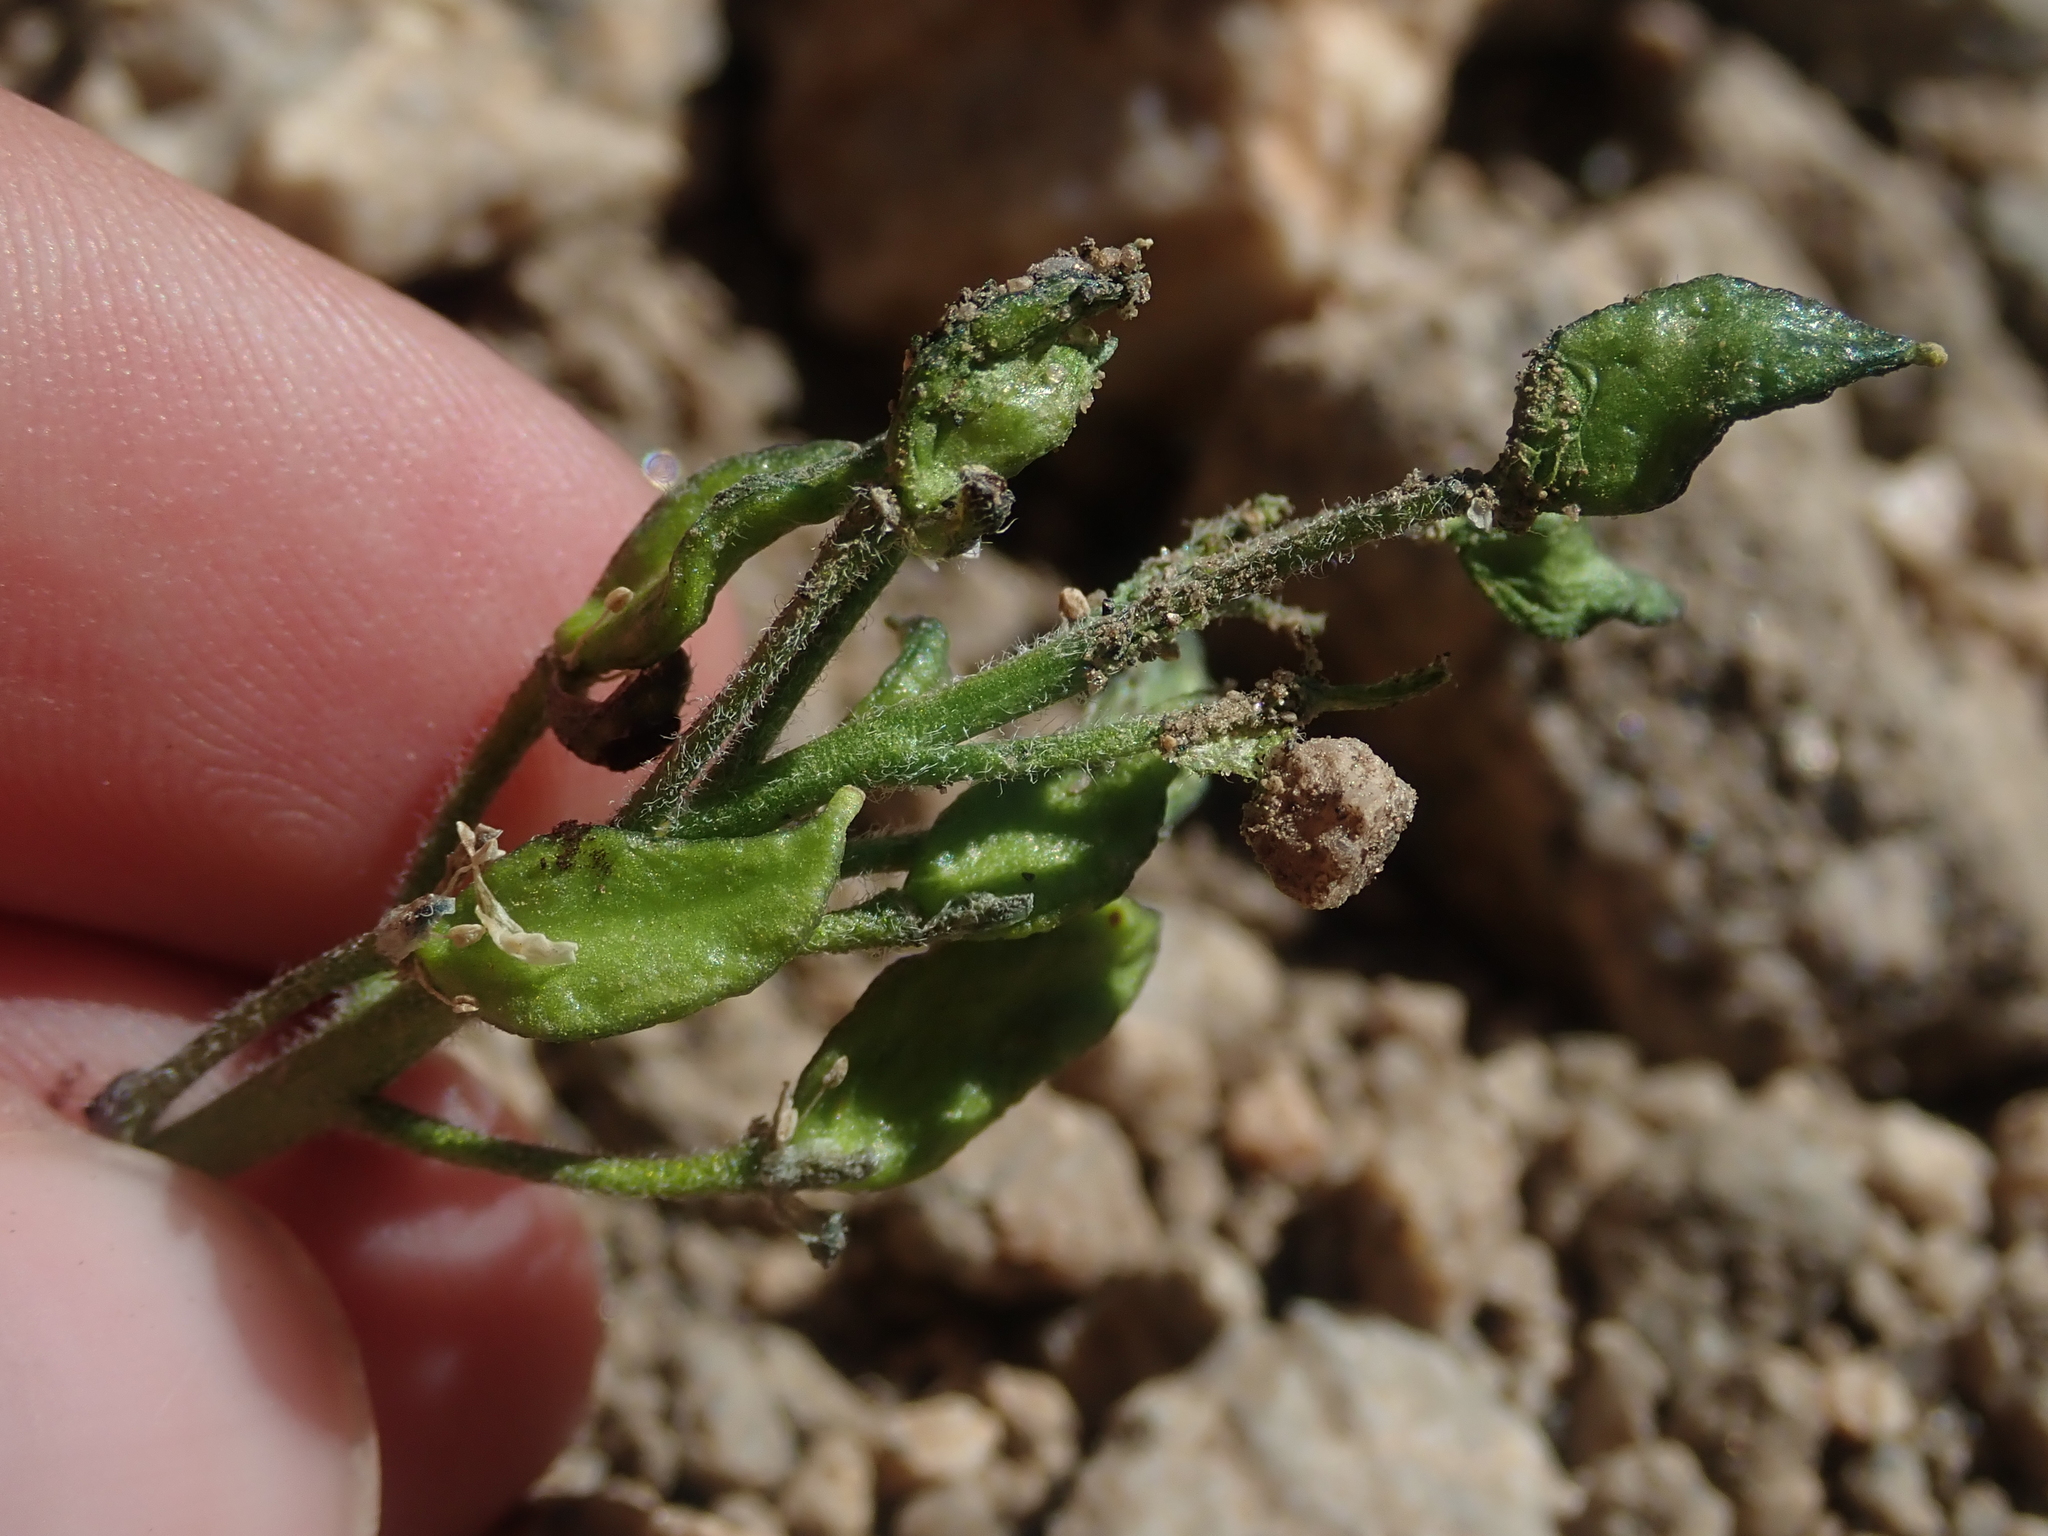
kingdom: Plantae
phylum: Tracheophyta
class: Magnoliopsida
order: Brassicales
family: Brassicaceae
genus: Draba
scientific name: Draba crassa
